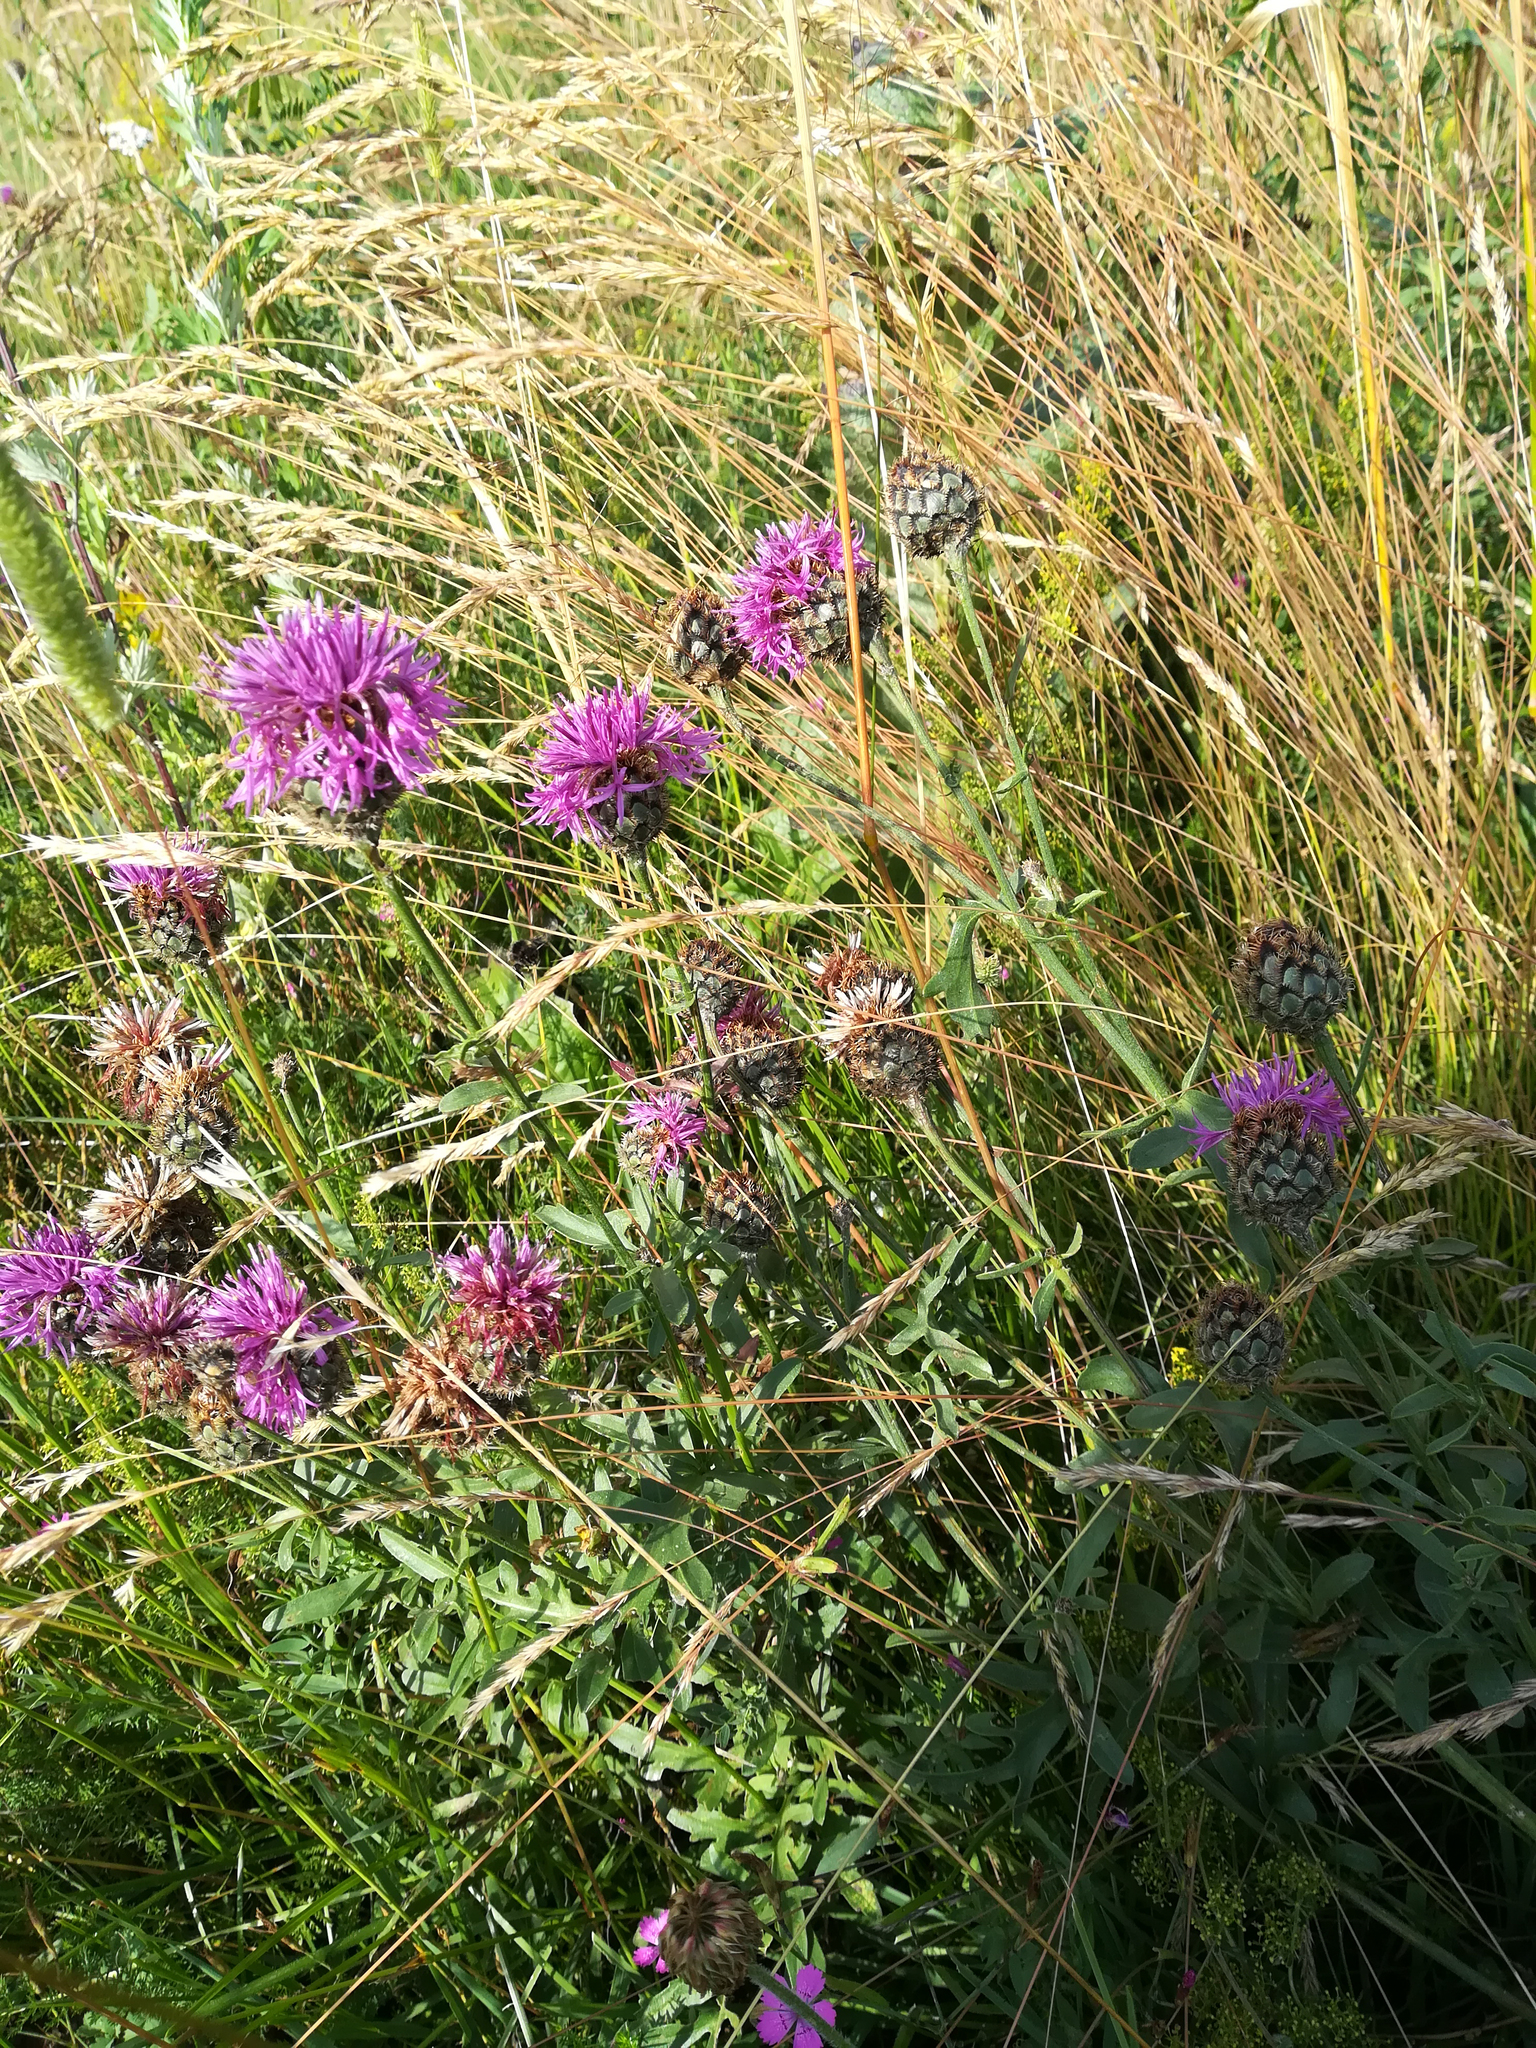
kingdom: Plantae
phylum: Tracheophyta
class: Magnoliopsida
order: Asterales
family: Asteraceae
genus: Centaurea
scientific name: Centaurea scabiosa
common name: Greater knapweed
